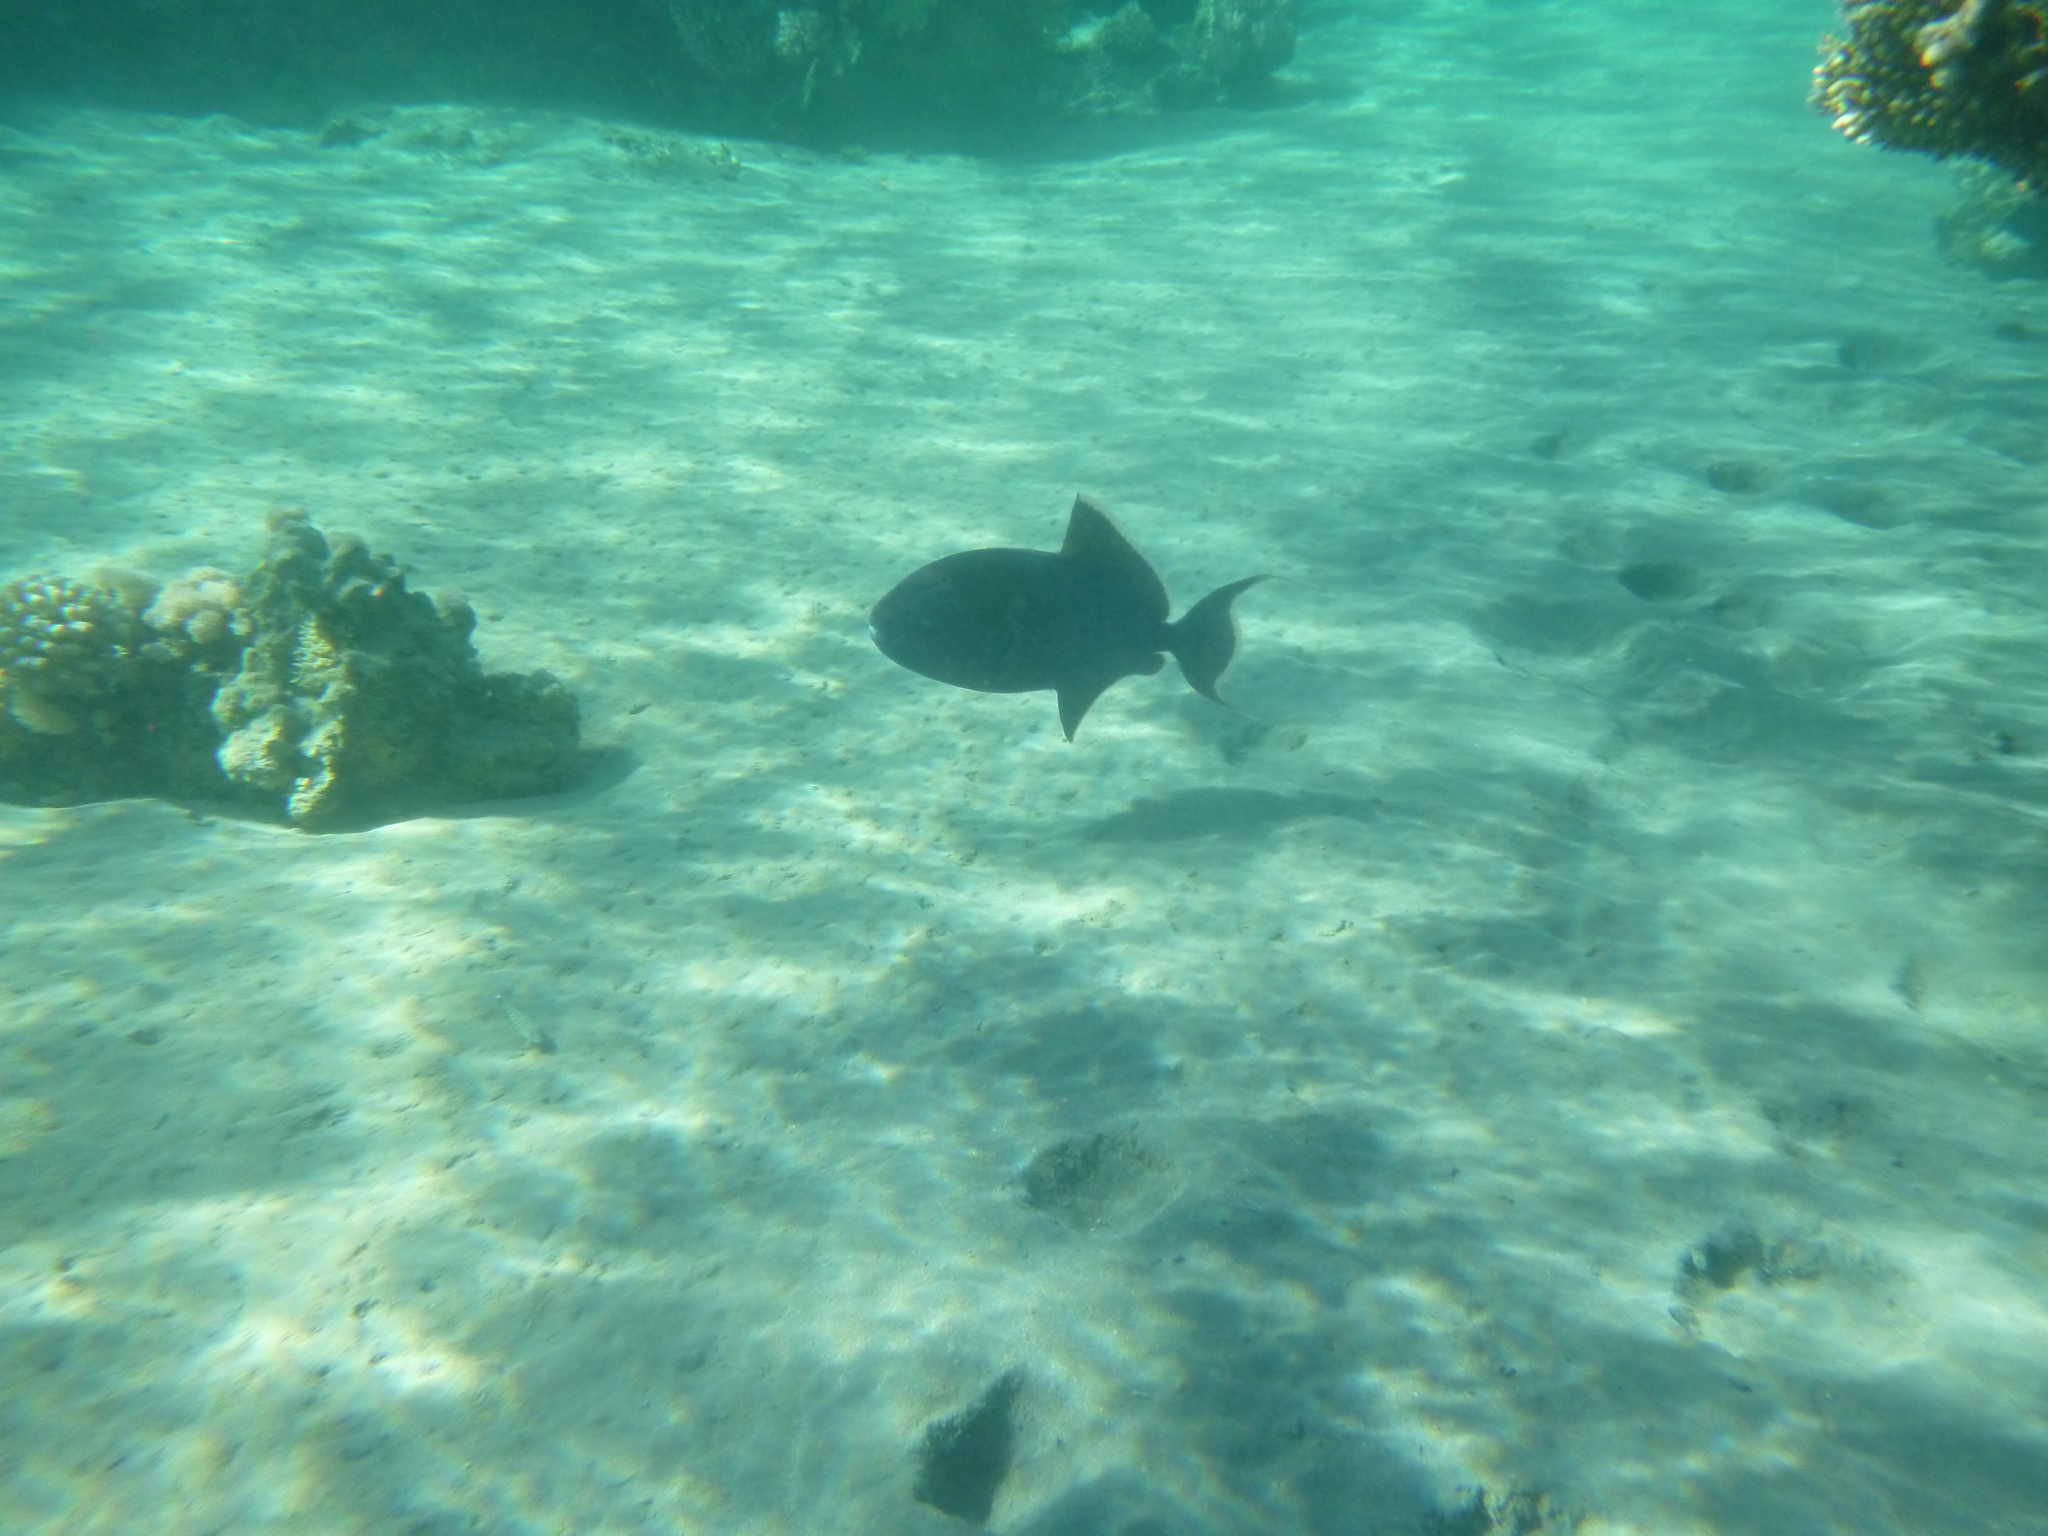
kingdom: Animalia
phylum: Chordata
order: Tetraodontiformes
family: Balistidae
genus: Pseudobalistes
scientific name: Pseudobalistes fuscus
